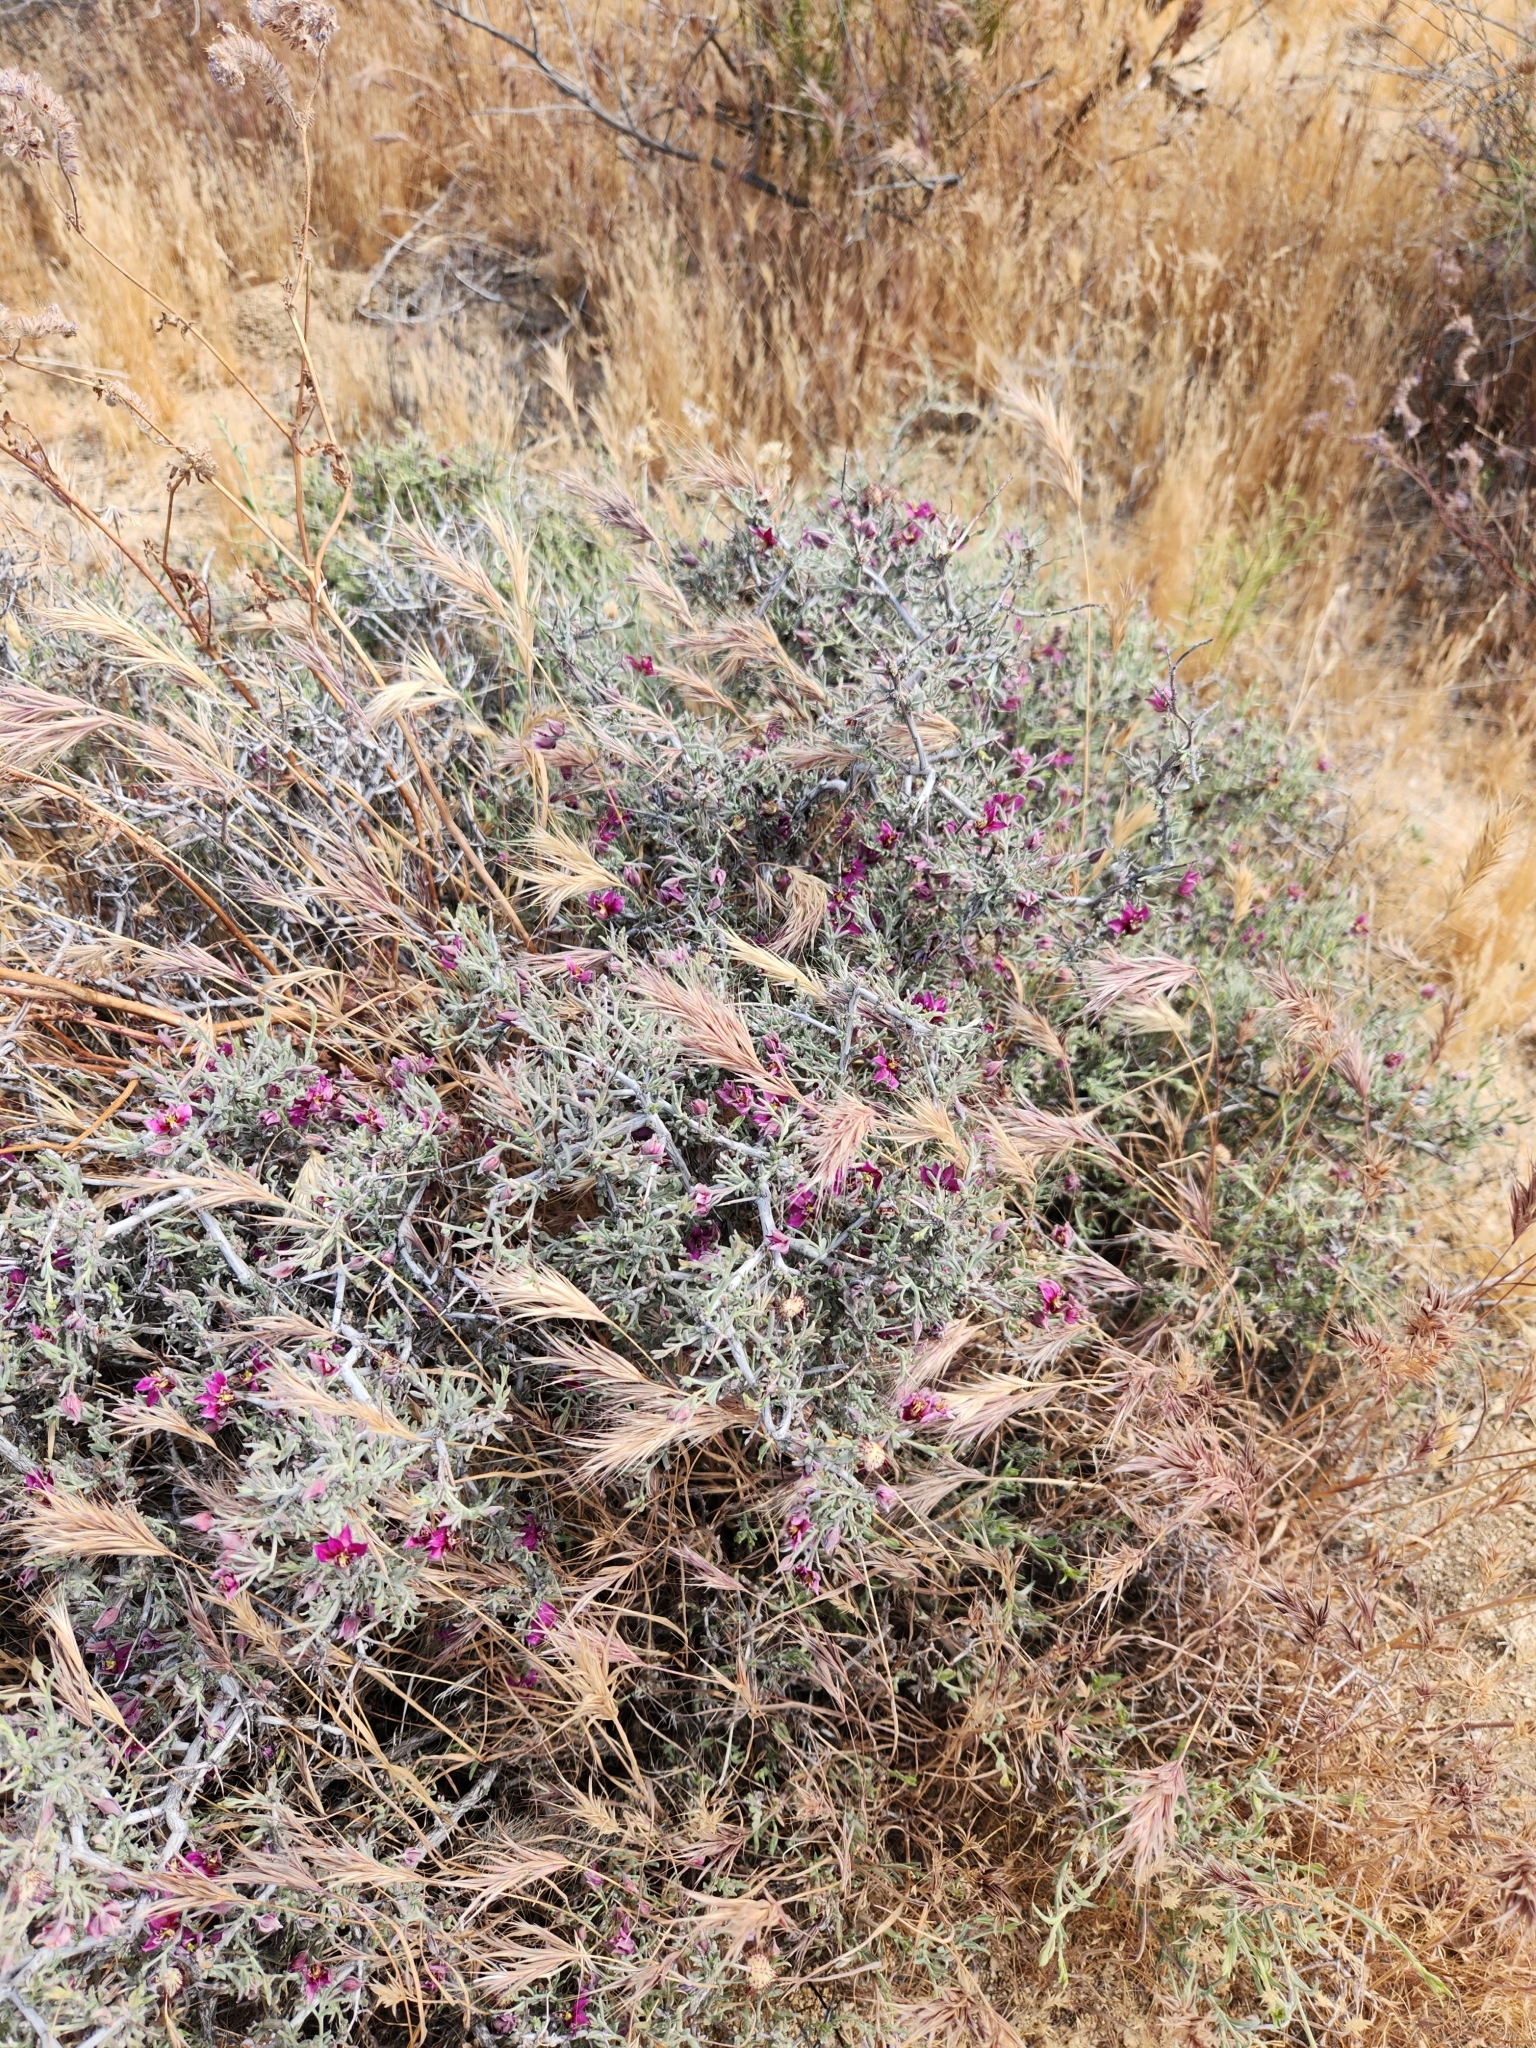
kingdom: Plantae
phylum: Tracheophyta
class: Magnoliopsida
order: Zygophyllales
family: Krameriaceae
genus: Krameria
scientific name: Krameria erecta
